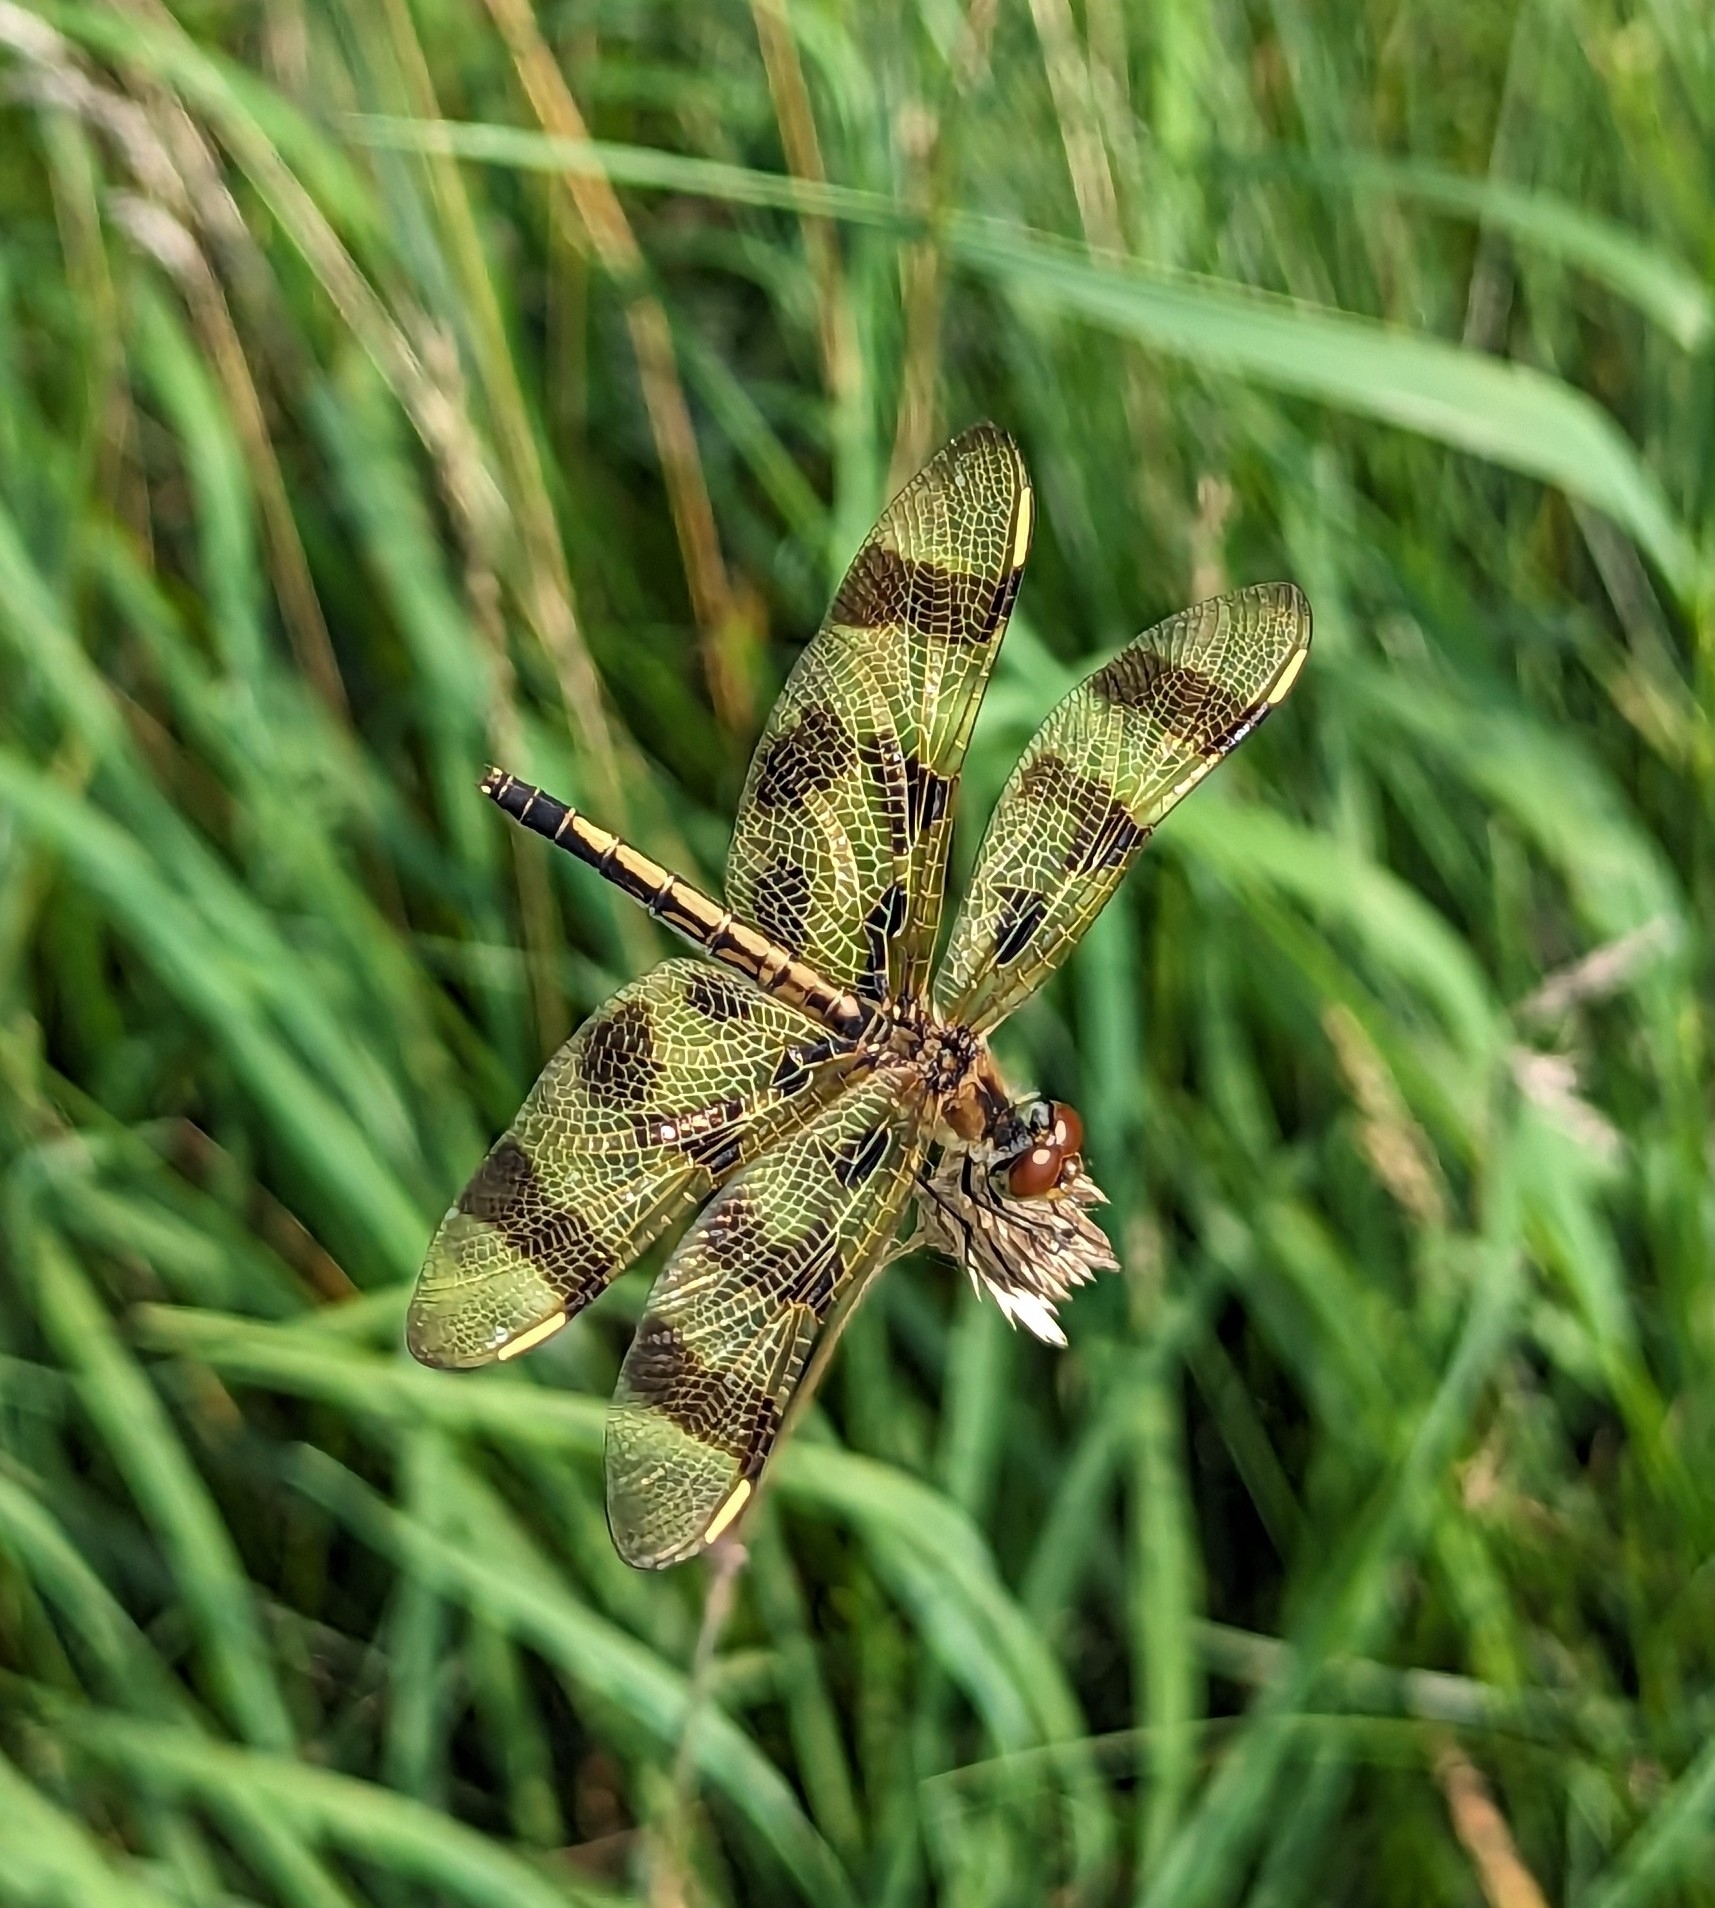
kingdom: Animalia
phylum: Arthropoda
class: Insecta
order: Odonata
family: Libellulidae
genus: Celithemis
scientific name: Celithemis eponina
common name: Halloween pennant
